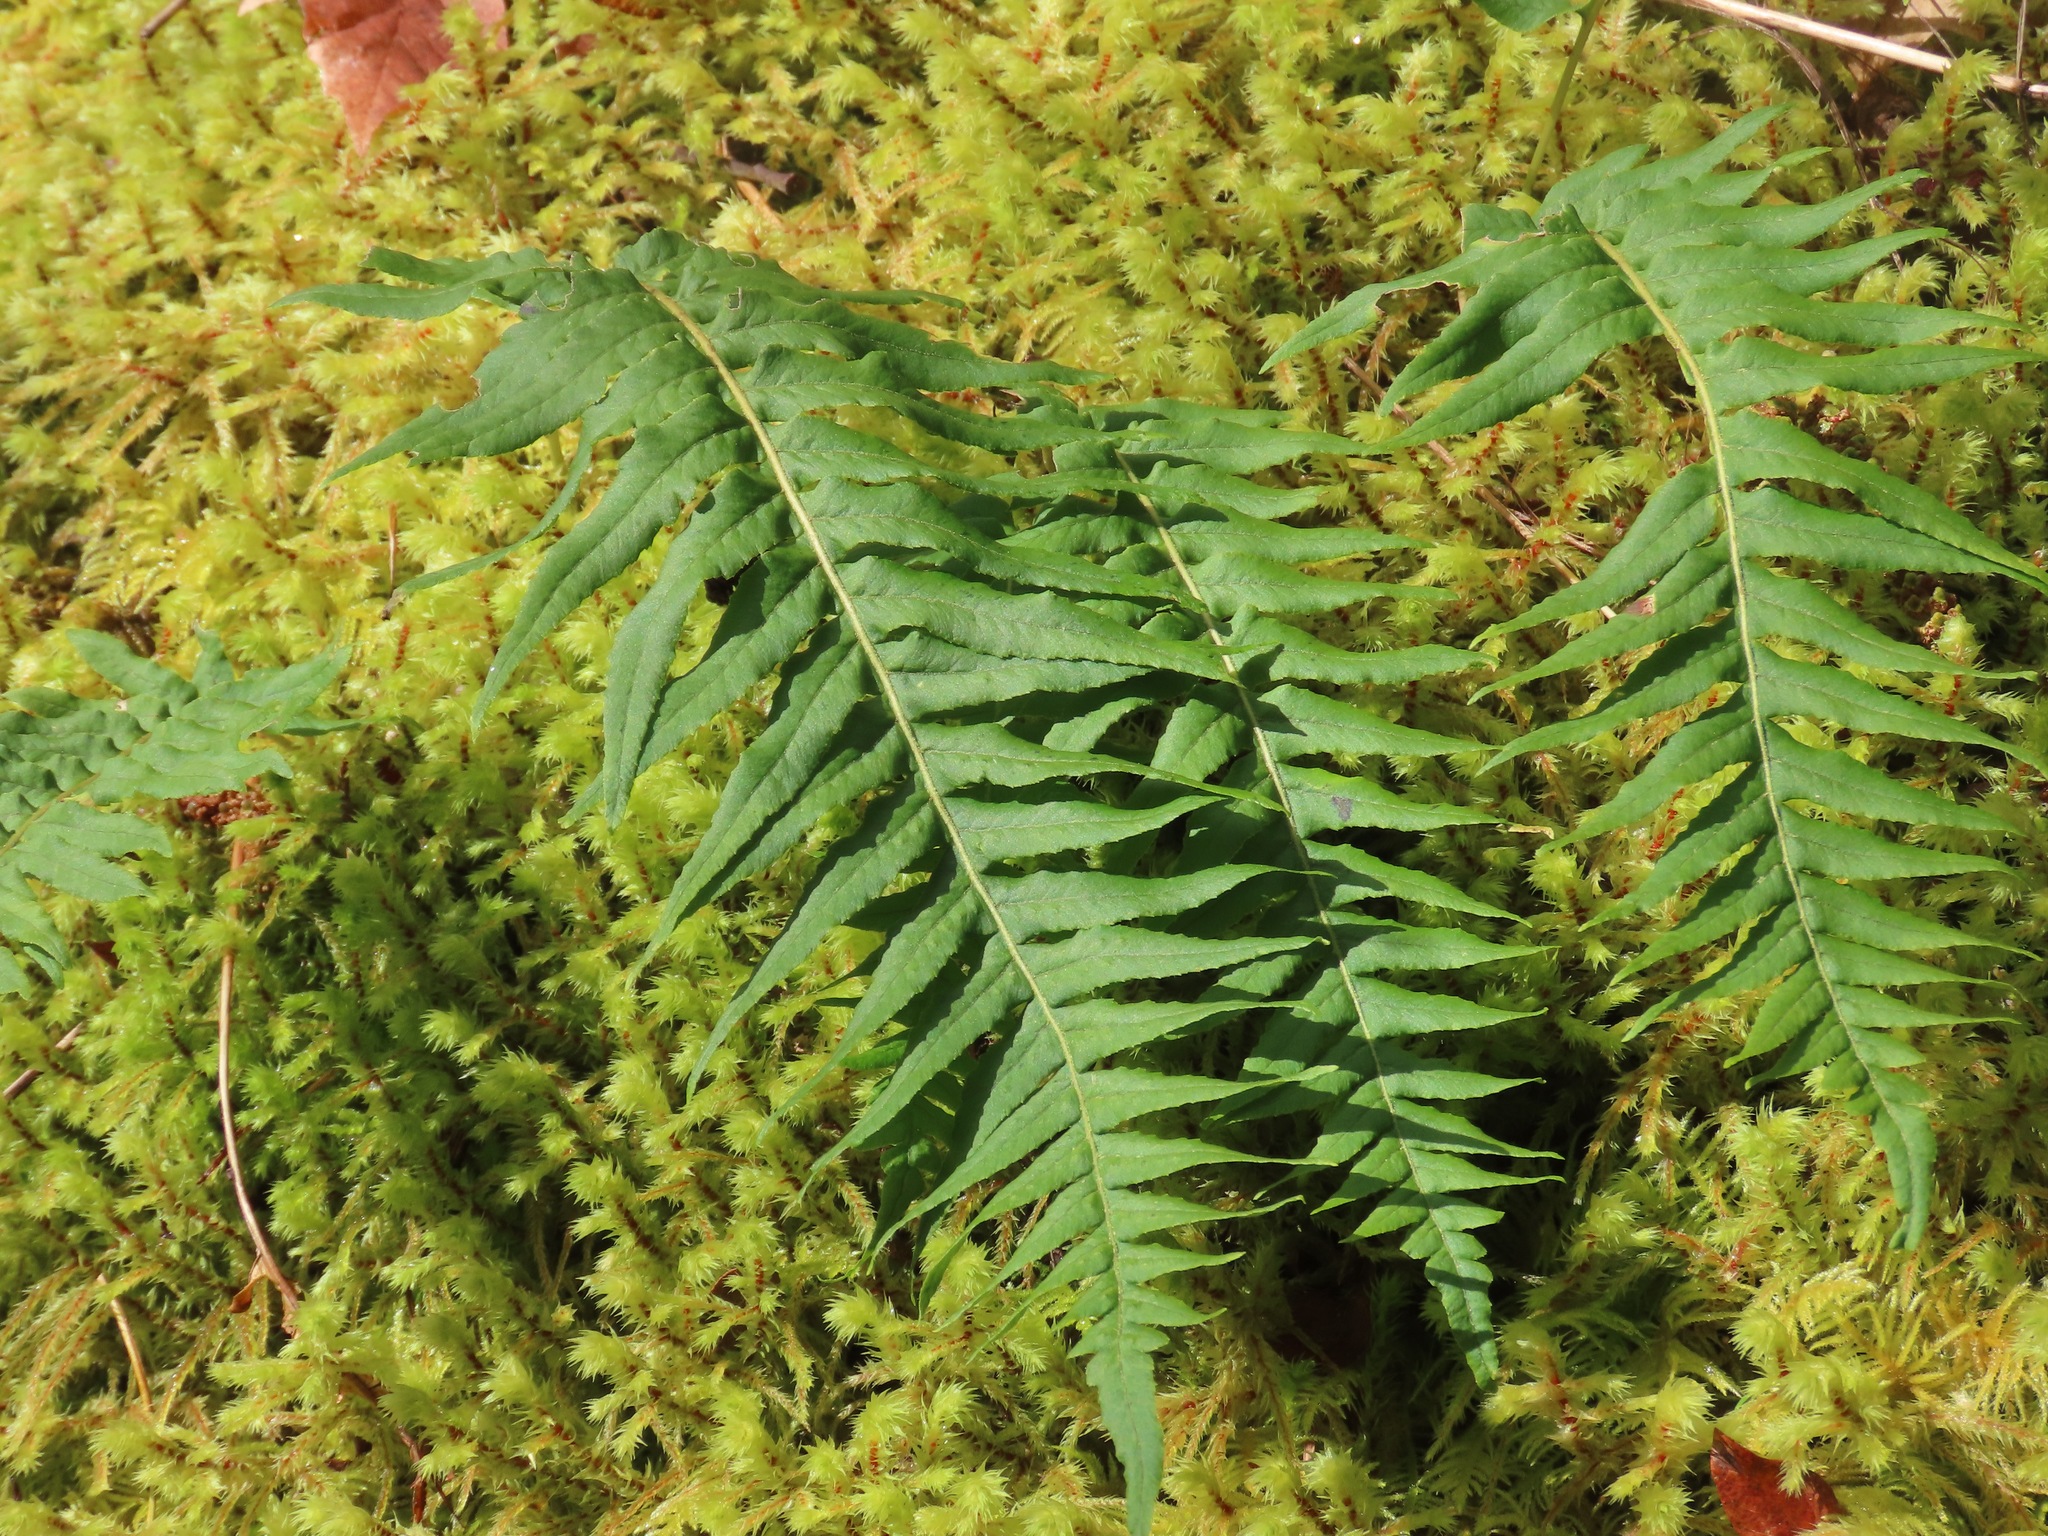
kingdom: Plantae
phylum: Tracheophyta
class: Polypodiopsida
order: Polypodiales
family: Polypodiaceae
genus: Polypodium
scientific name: Polypodium glycyrrhiza
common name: Licorice fern
